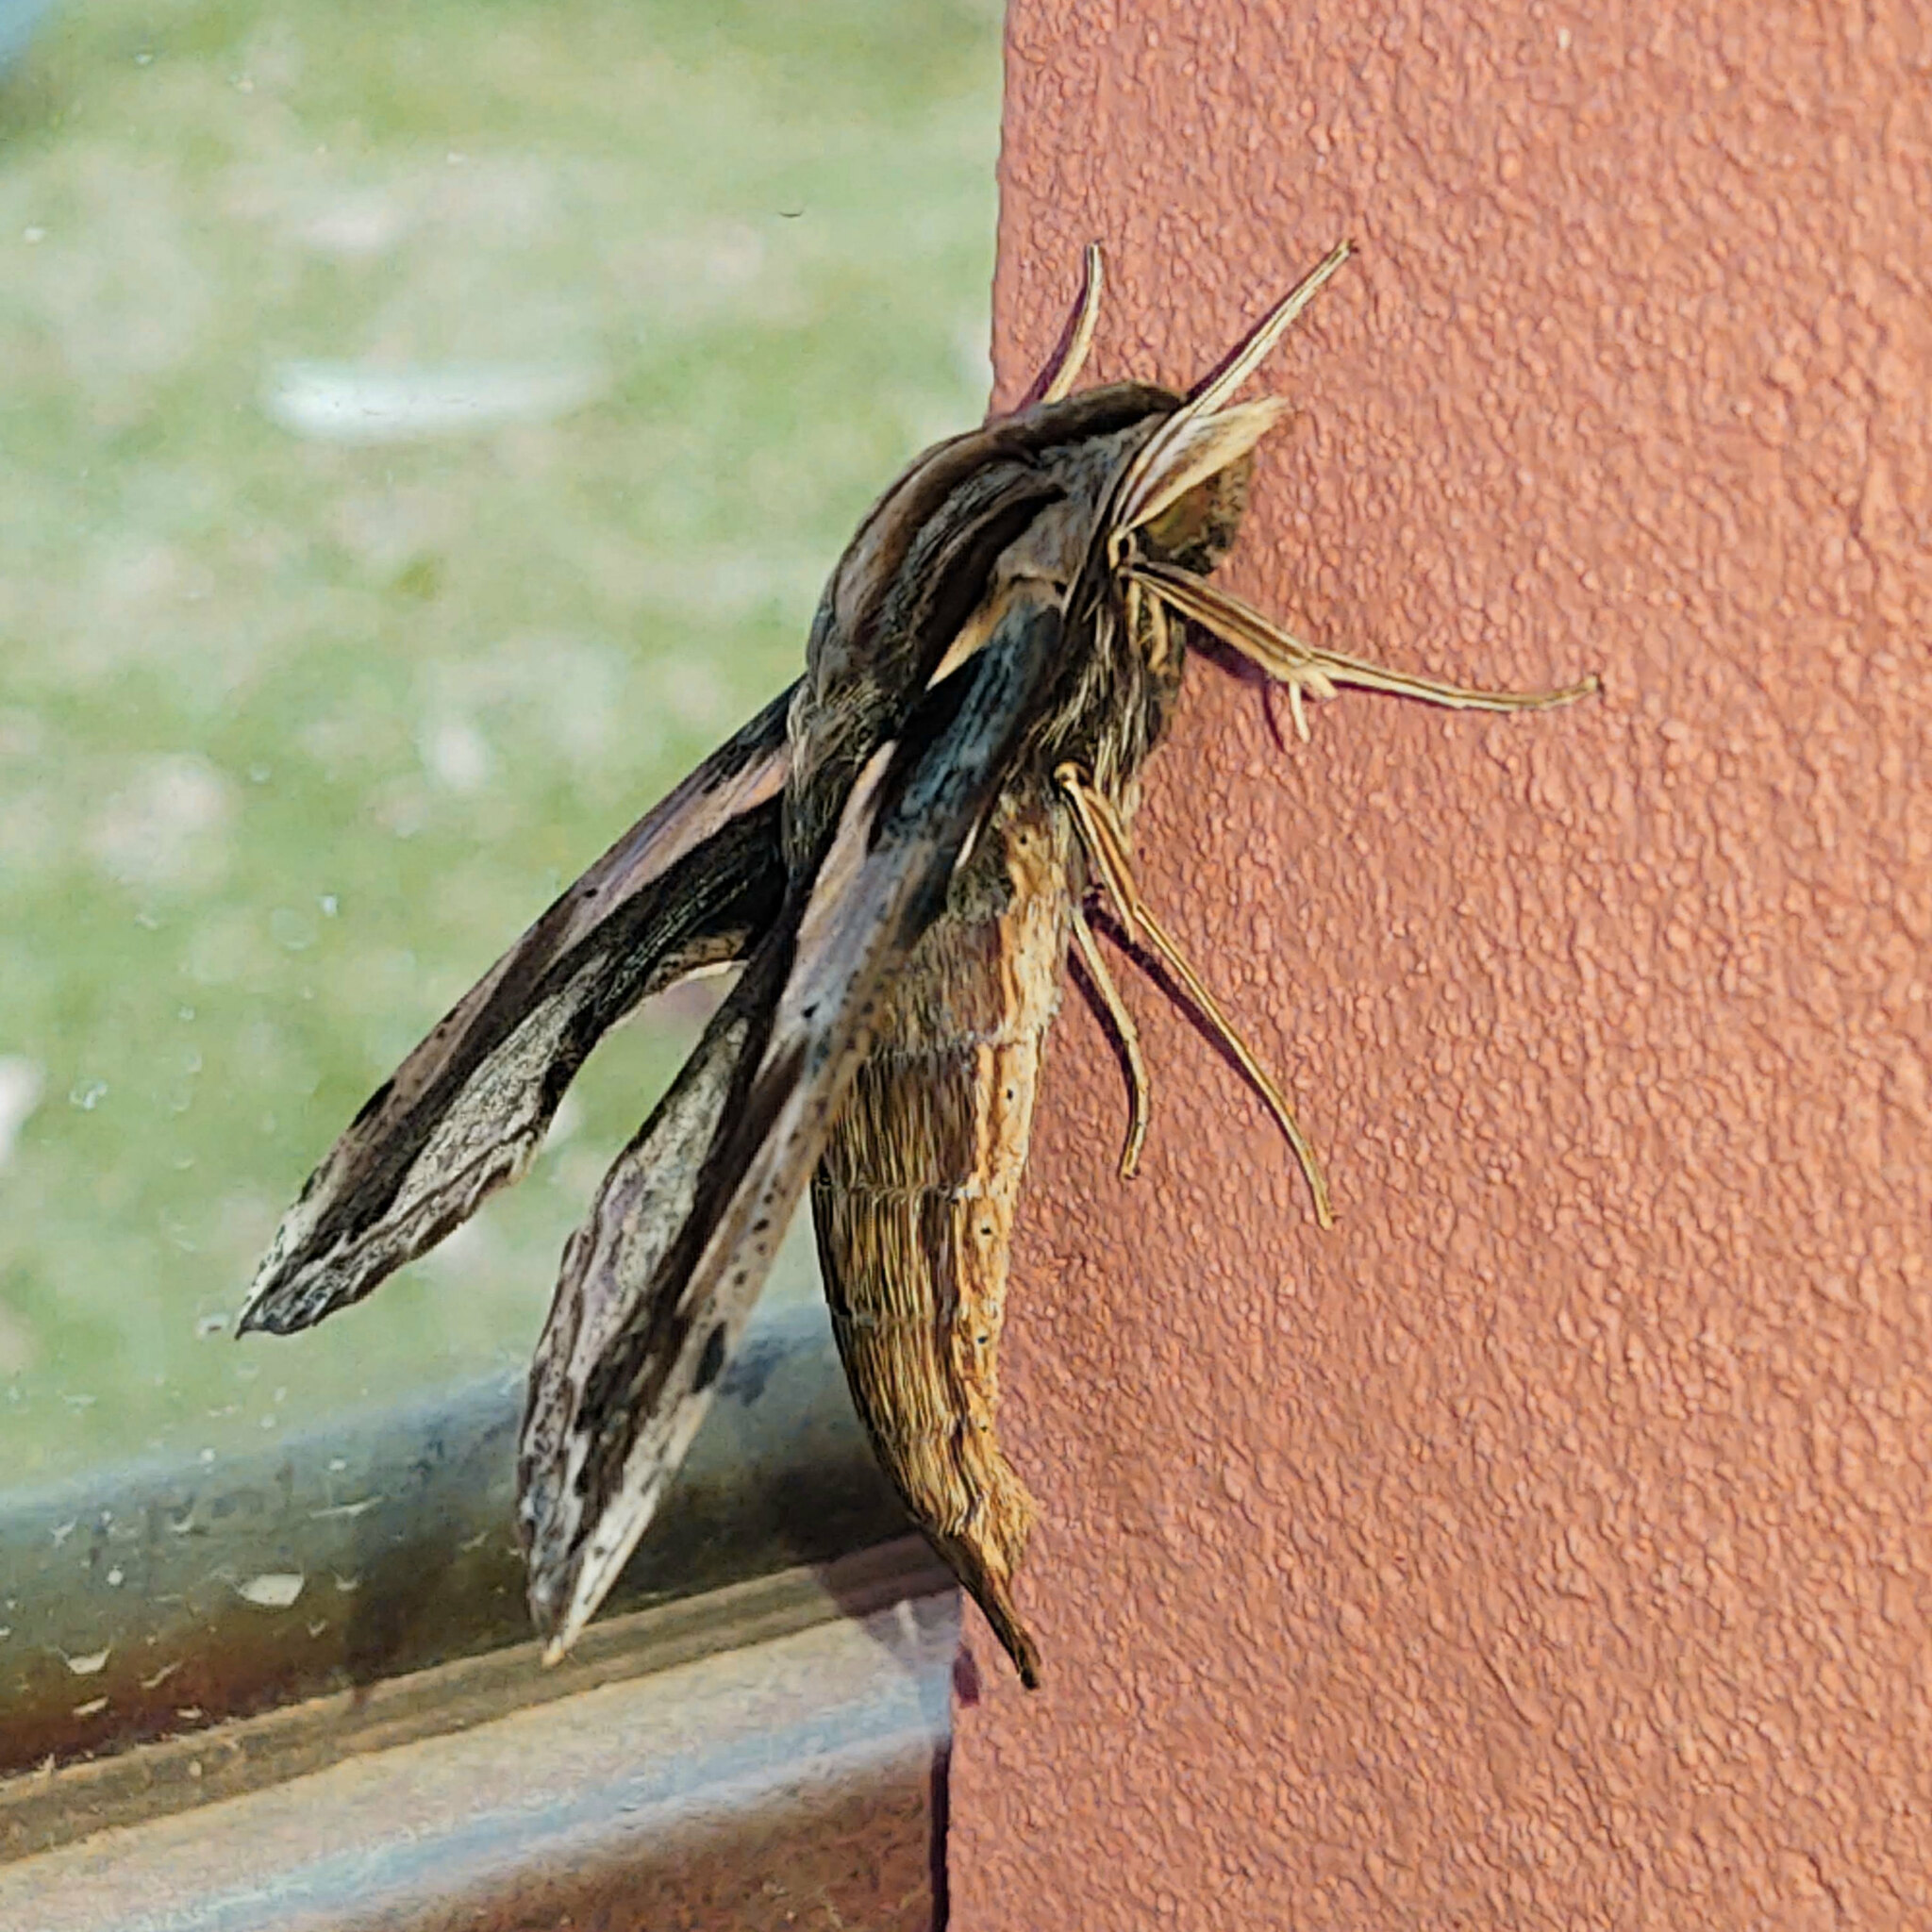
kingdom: Animalia
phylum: Arthropoda
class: Insecta
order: Lepidoptera
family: Sphingidae
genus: Xylophanes
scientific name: Xylophanes ceratomioides
